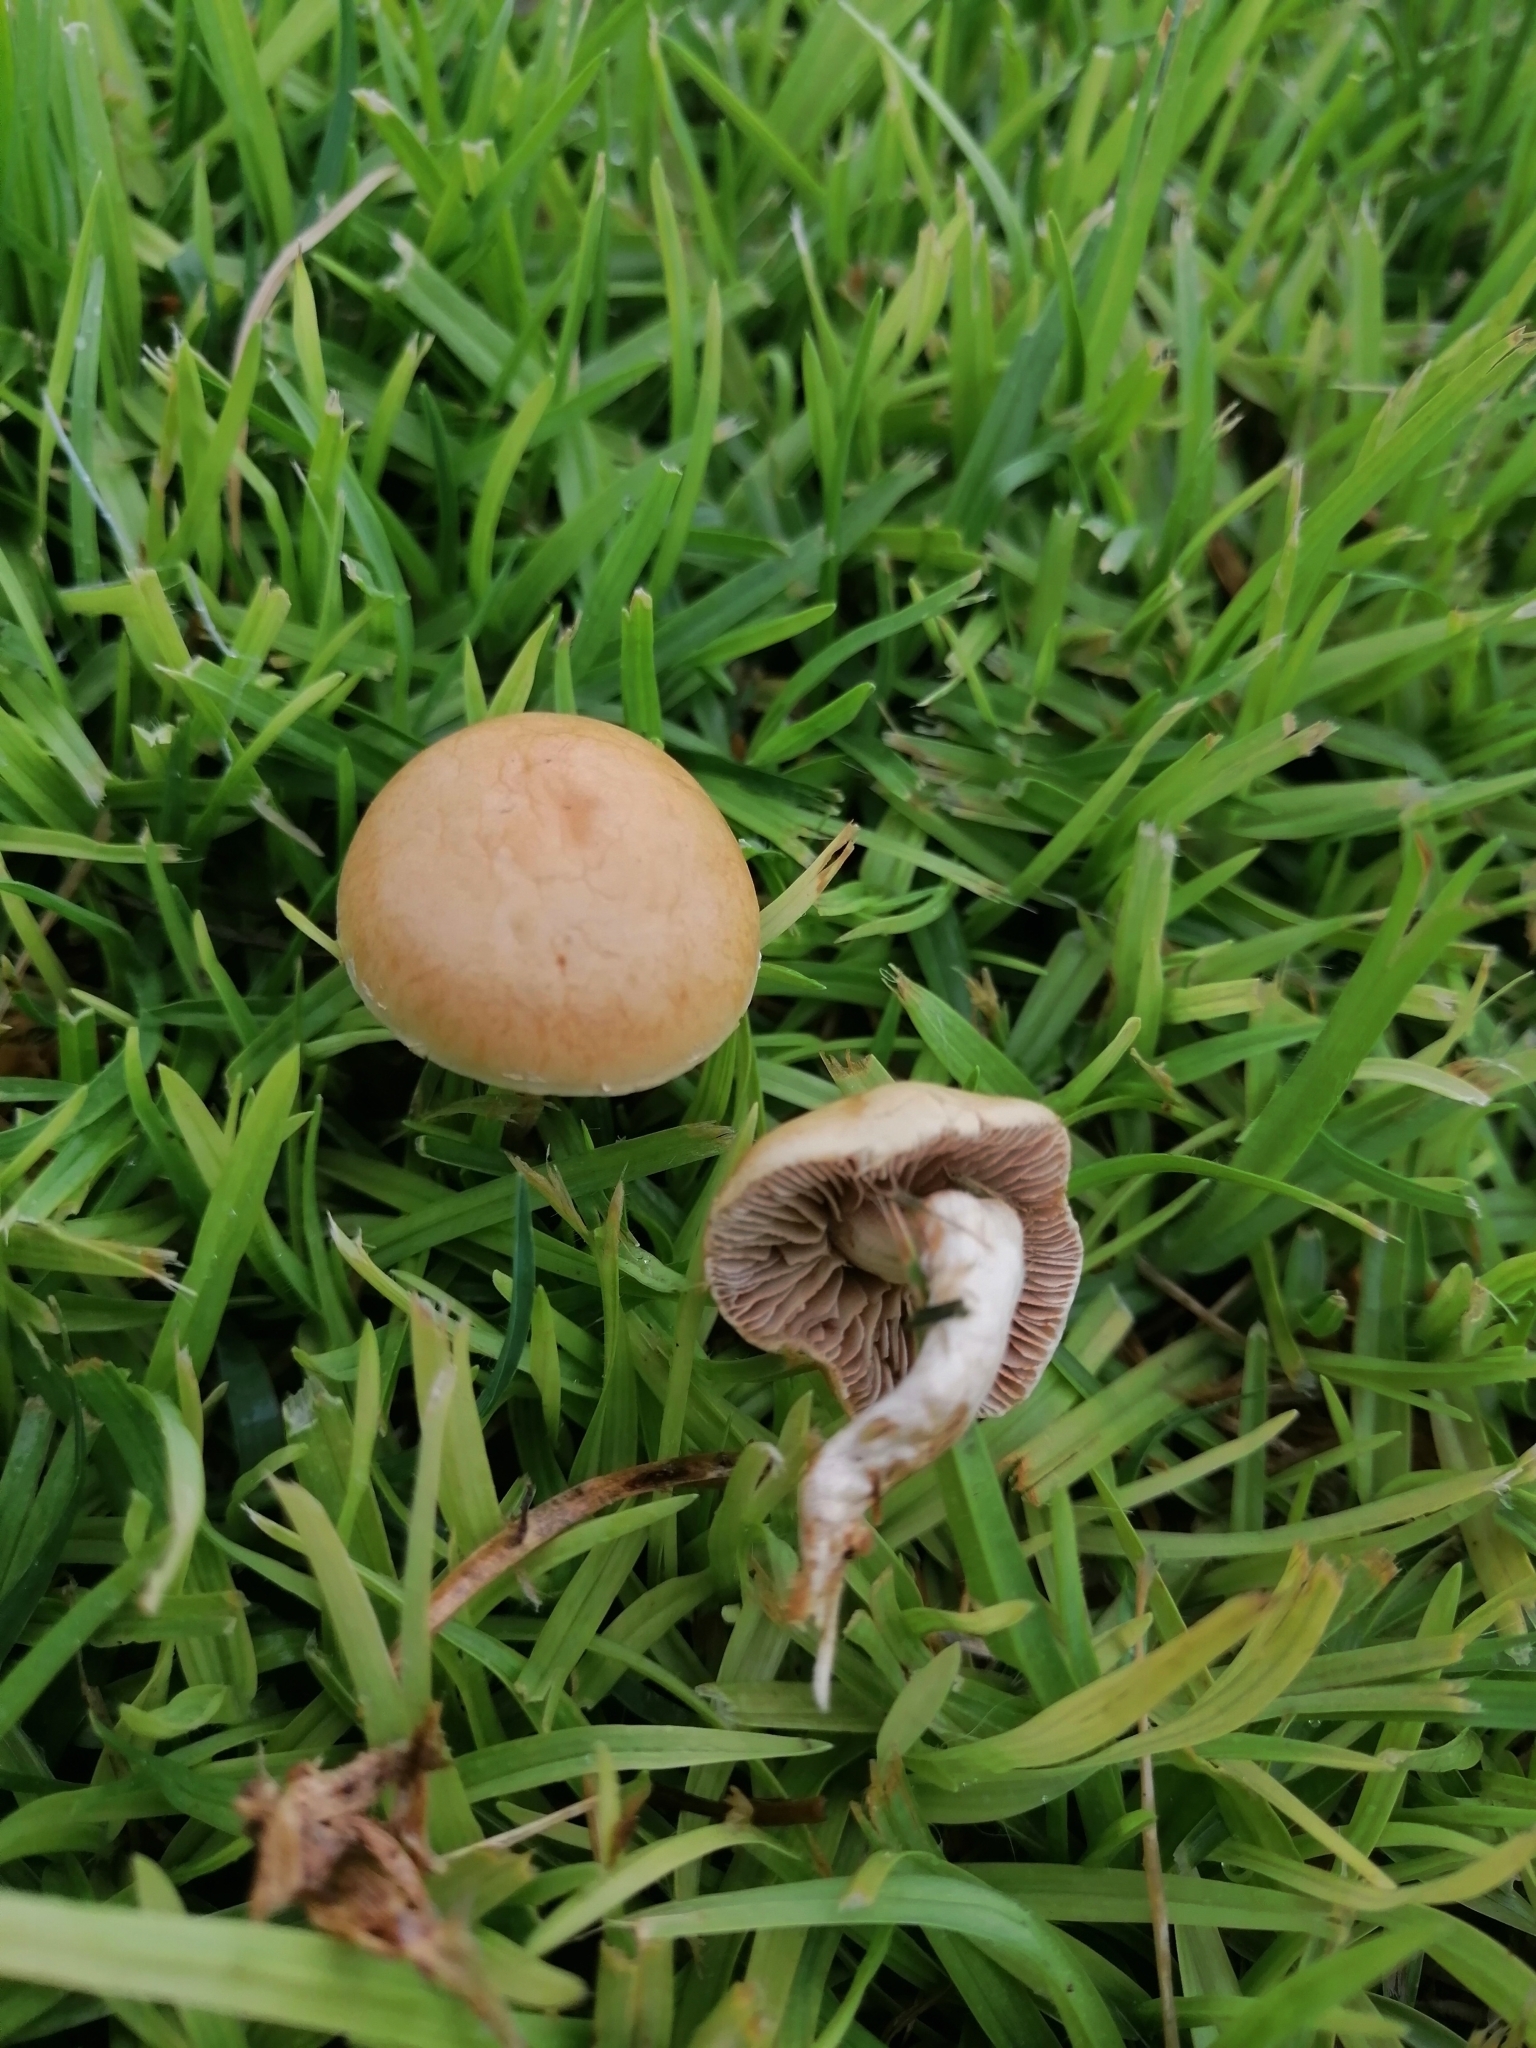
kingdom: Fungi
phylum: Basidiomycota
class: Agaricomycetes
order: Agaricales
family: Strophariaceae
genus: Agrocybe
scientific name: Agrocybe pediades
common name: Common fieldcap
